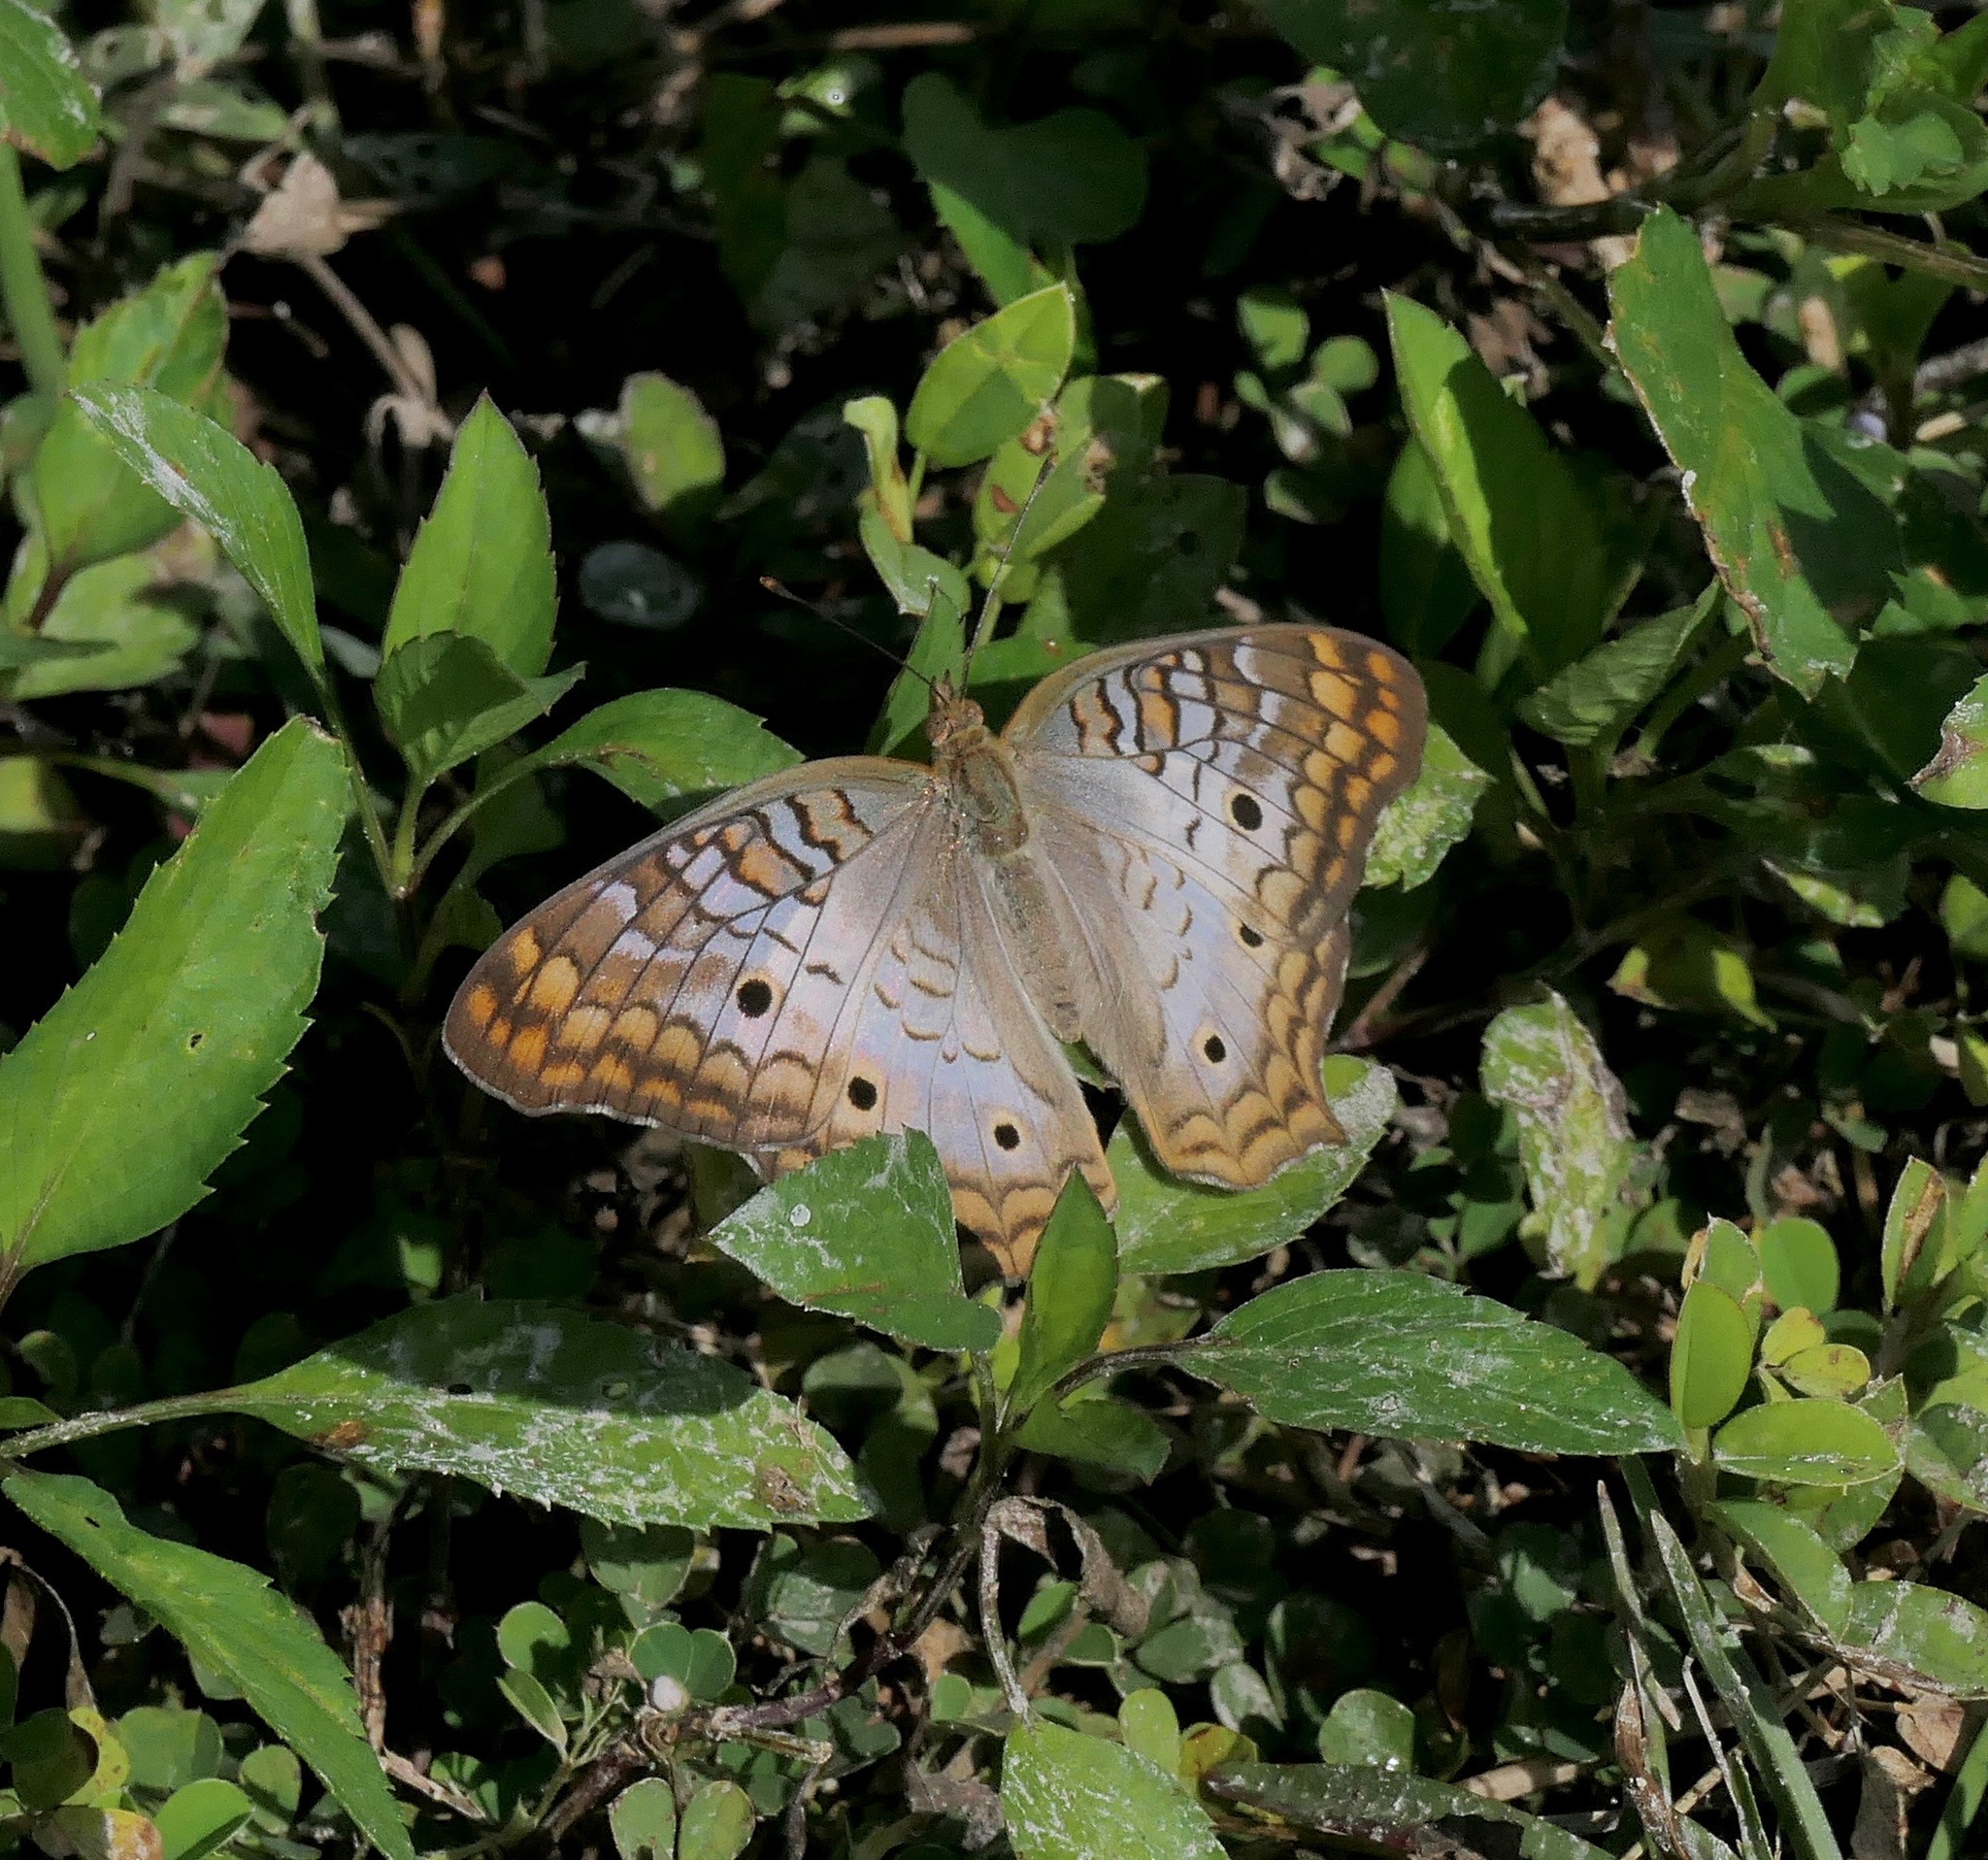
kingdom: Animalia
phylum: Arthropoda
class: Insecta
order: Lepidoptera
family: Nymphalidae
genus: Anartia
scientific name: Anartia jatrophae
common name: White peacock
